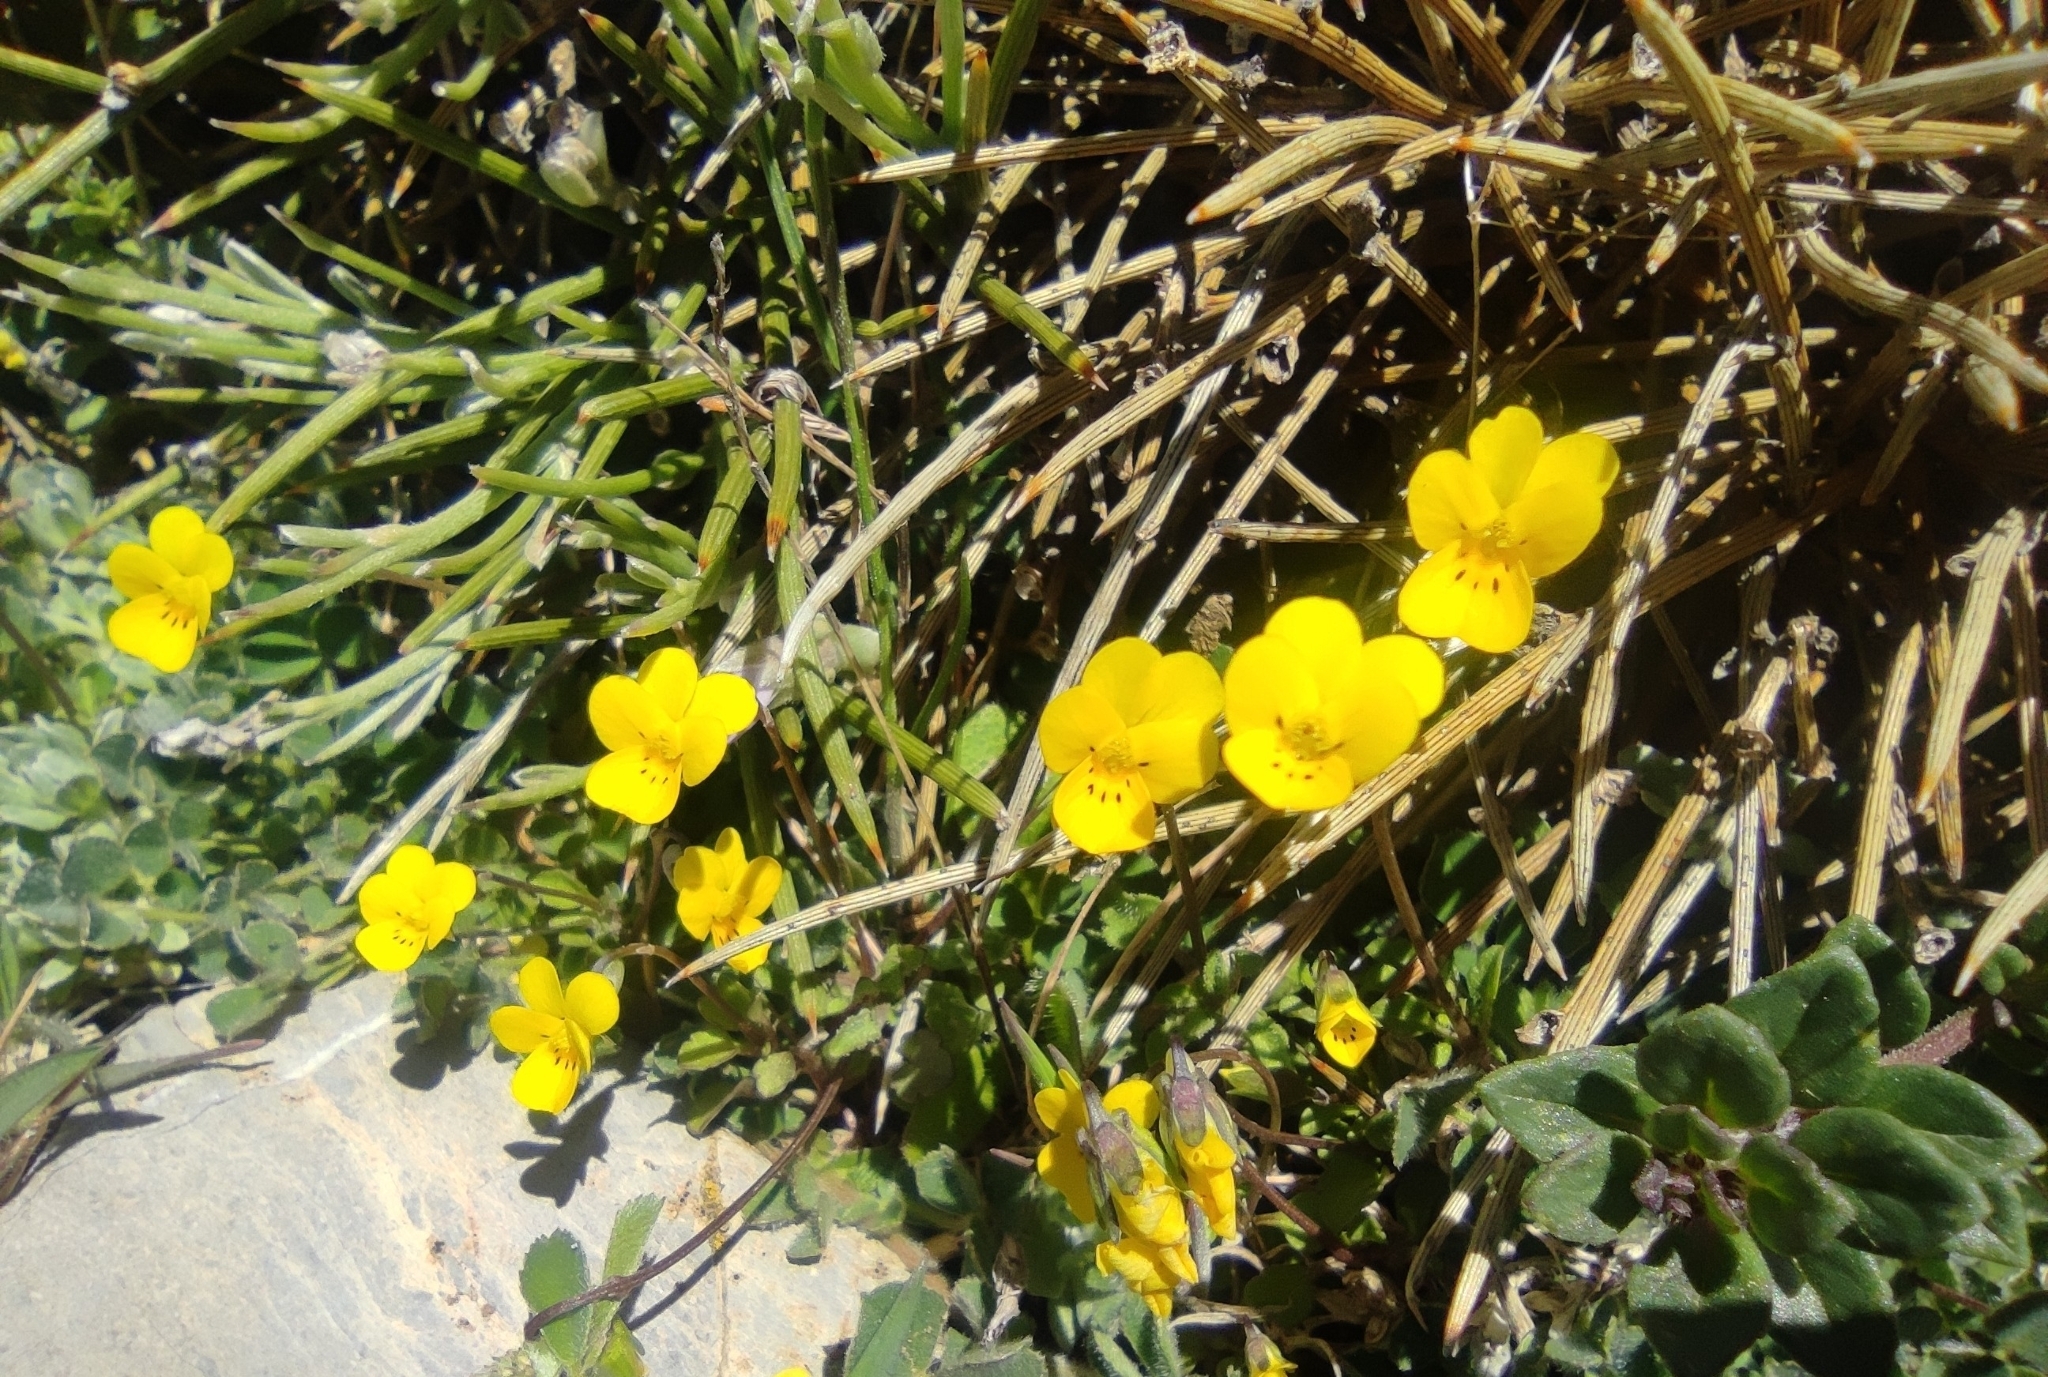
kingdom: Plantae
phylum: Tracheophyta
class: Magnoliopsida
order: Malpighiales
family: Violaceae
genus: Viola
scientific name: Viola demetria
